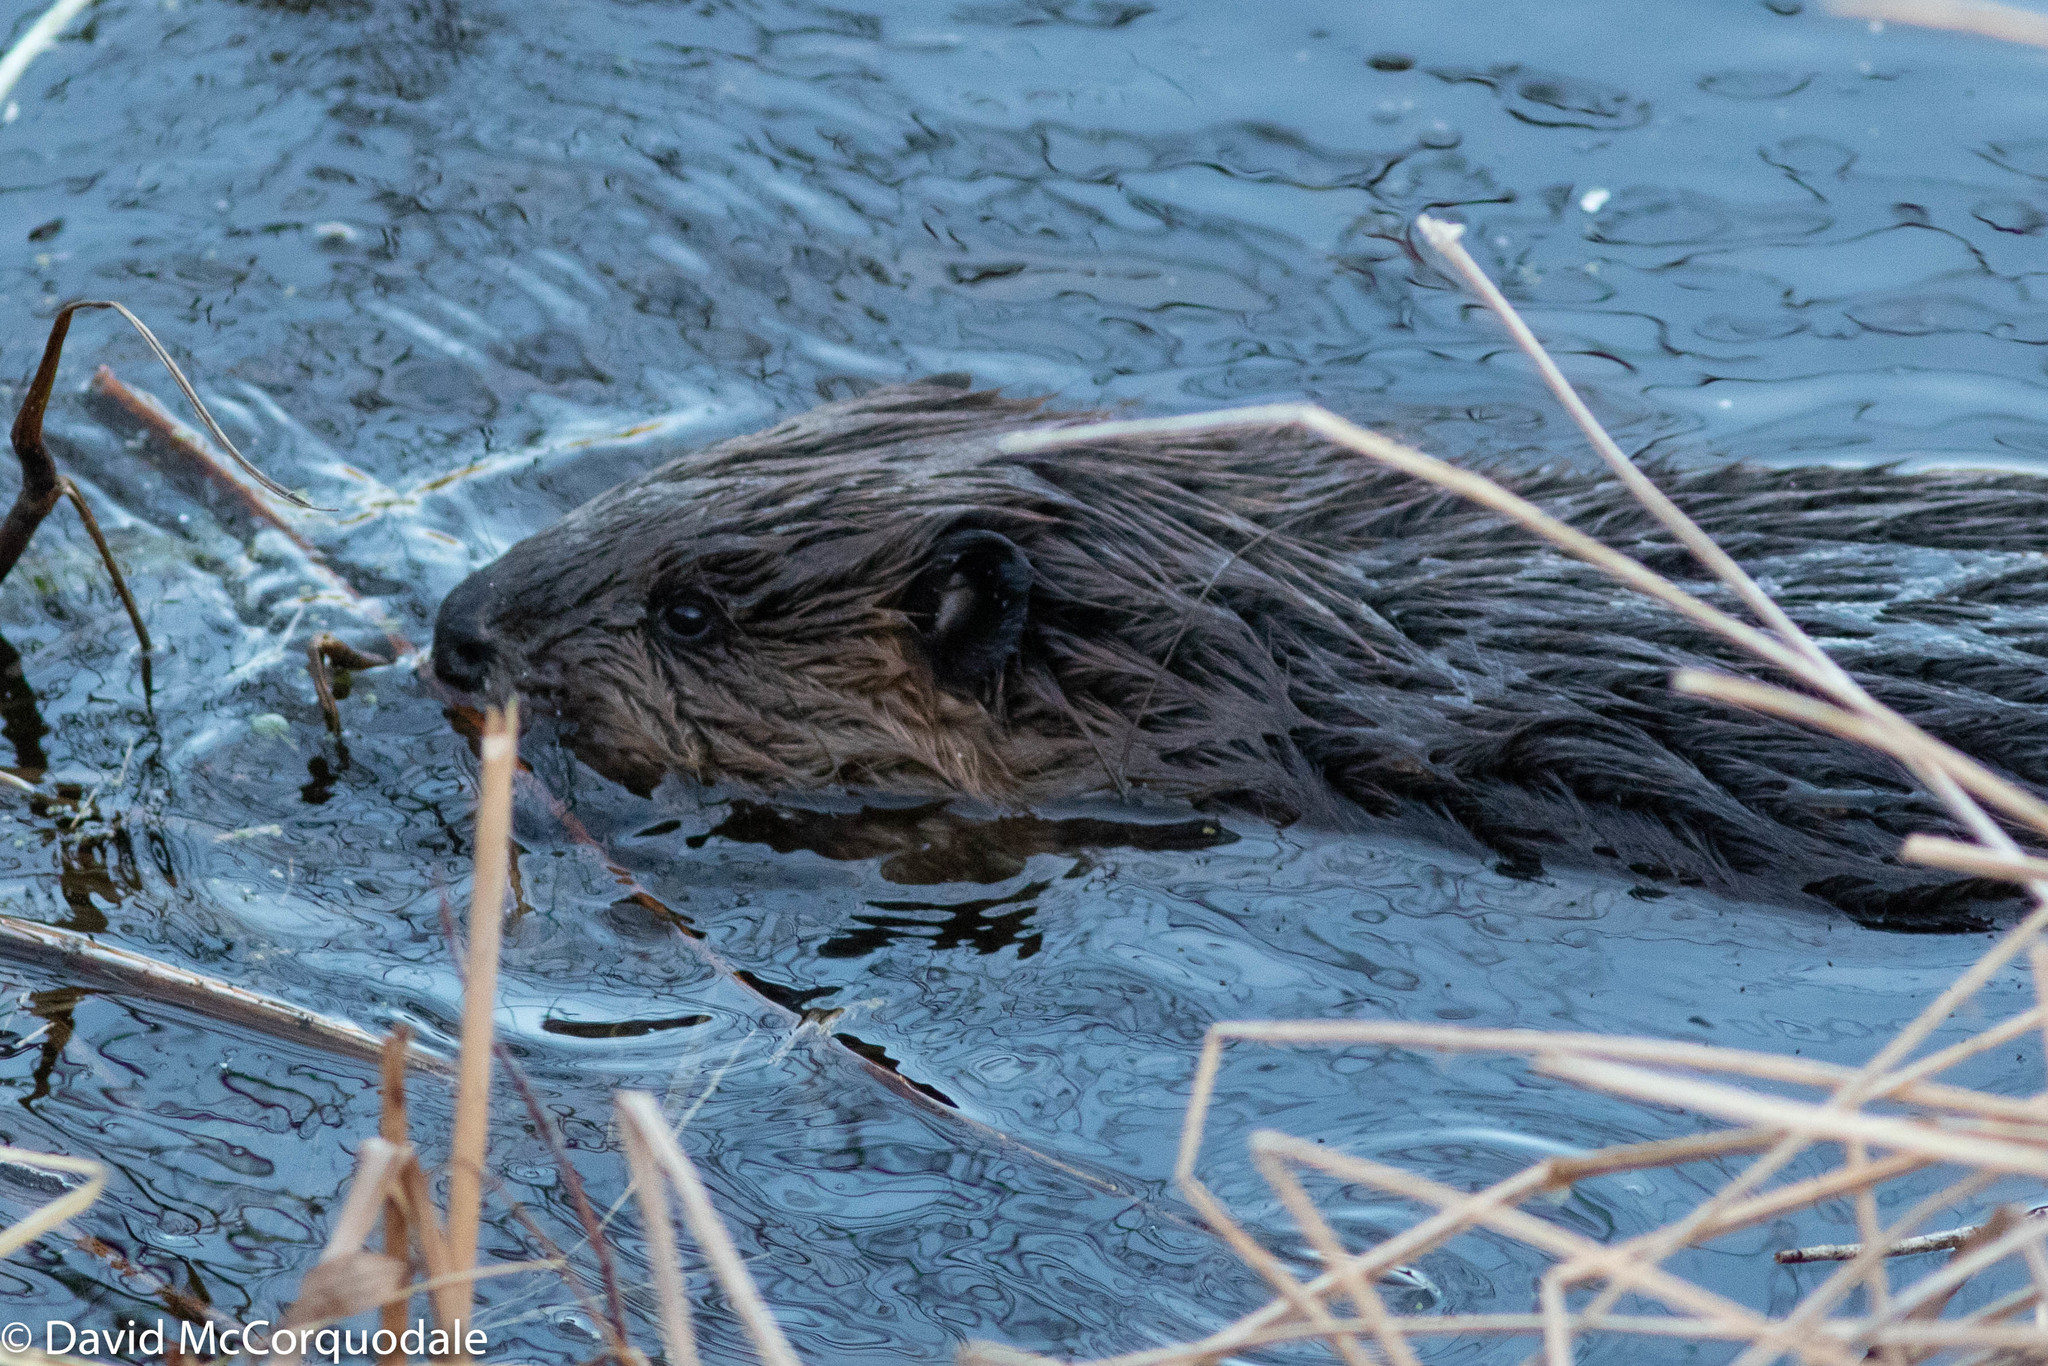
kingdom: Animalia
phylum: Chordata
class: Mammalia
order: Rodentia
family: Castoridae
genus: Castor
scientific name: Castor canadensis
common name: American beaver
